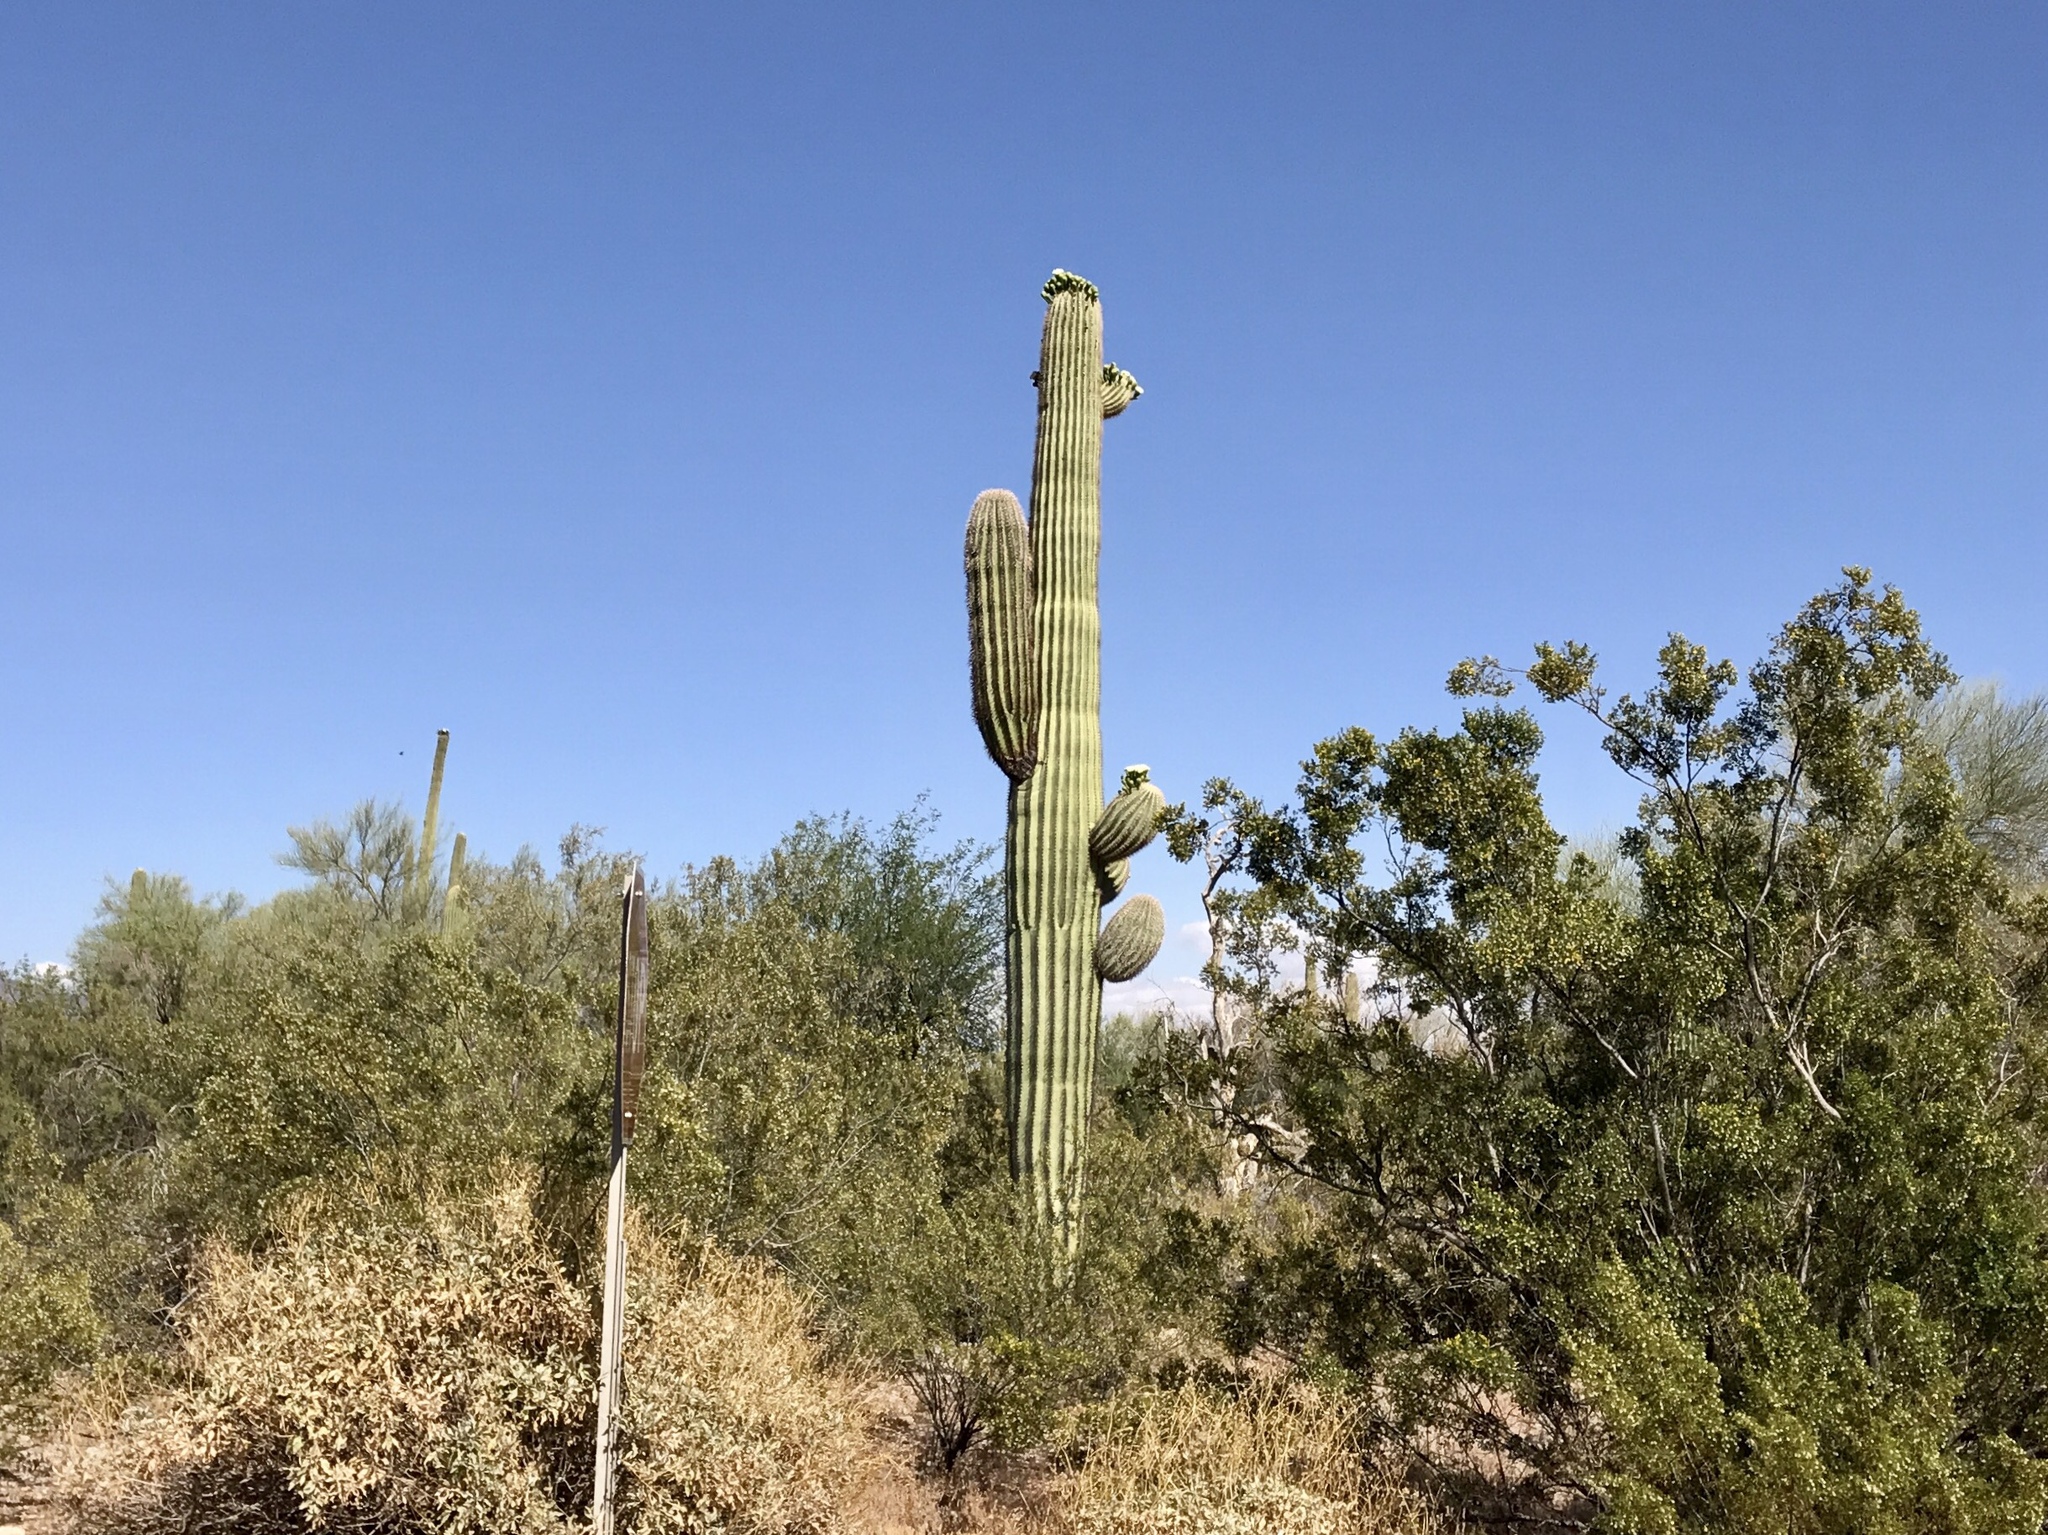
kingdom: Plantae
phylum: Tracheophyta
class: Magnoliopsida
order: Caryophyllales
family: Cactaceae
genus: Carnegiea
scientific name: Carnegiea gigantea
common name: Saguaro
